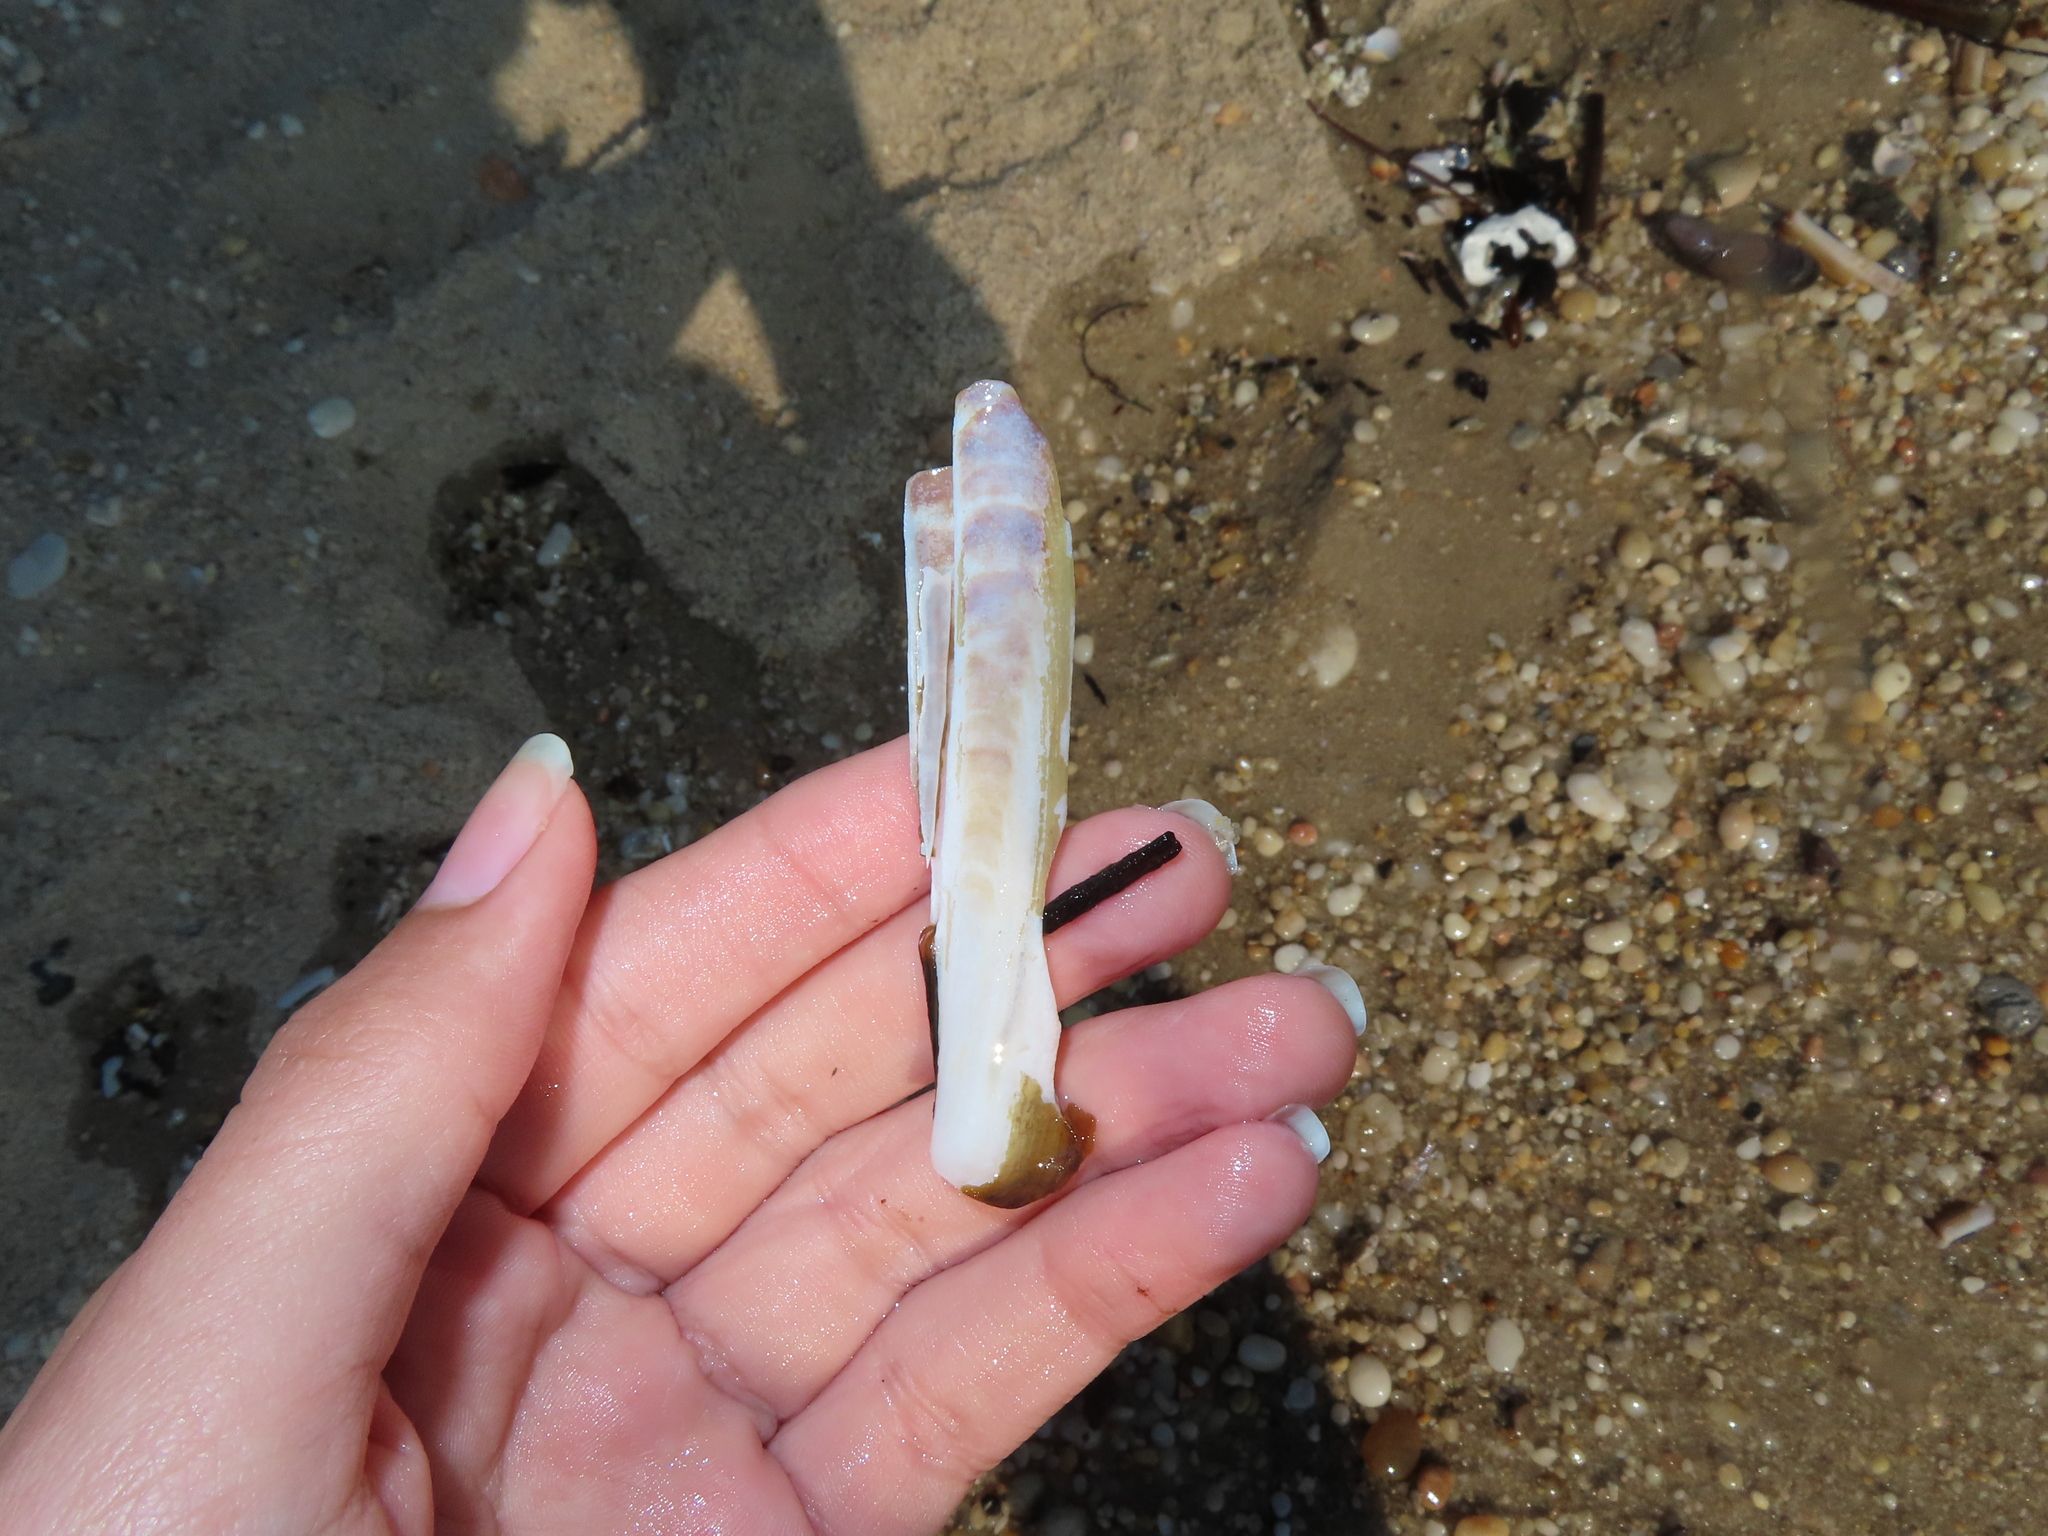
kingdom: Animalia
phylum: Mollusca
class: Bivalvia
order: Adapedonta
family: Pharidae
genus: Ensis
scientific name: Ensis leei
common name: American jack knife clam
